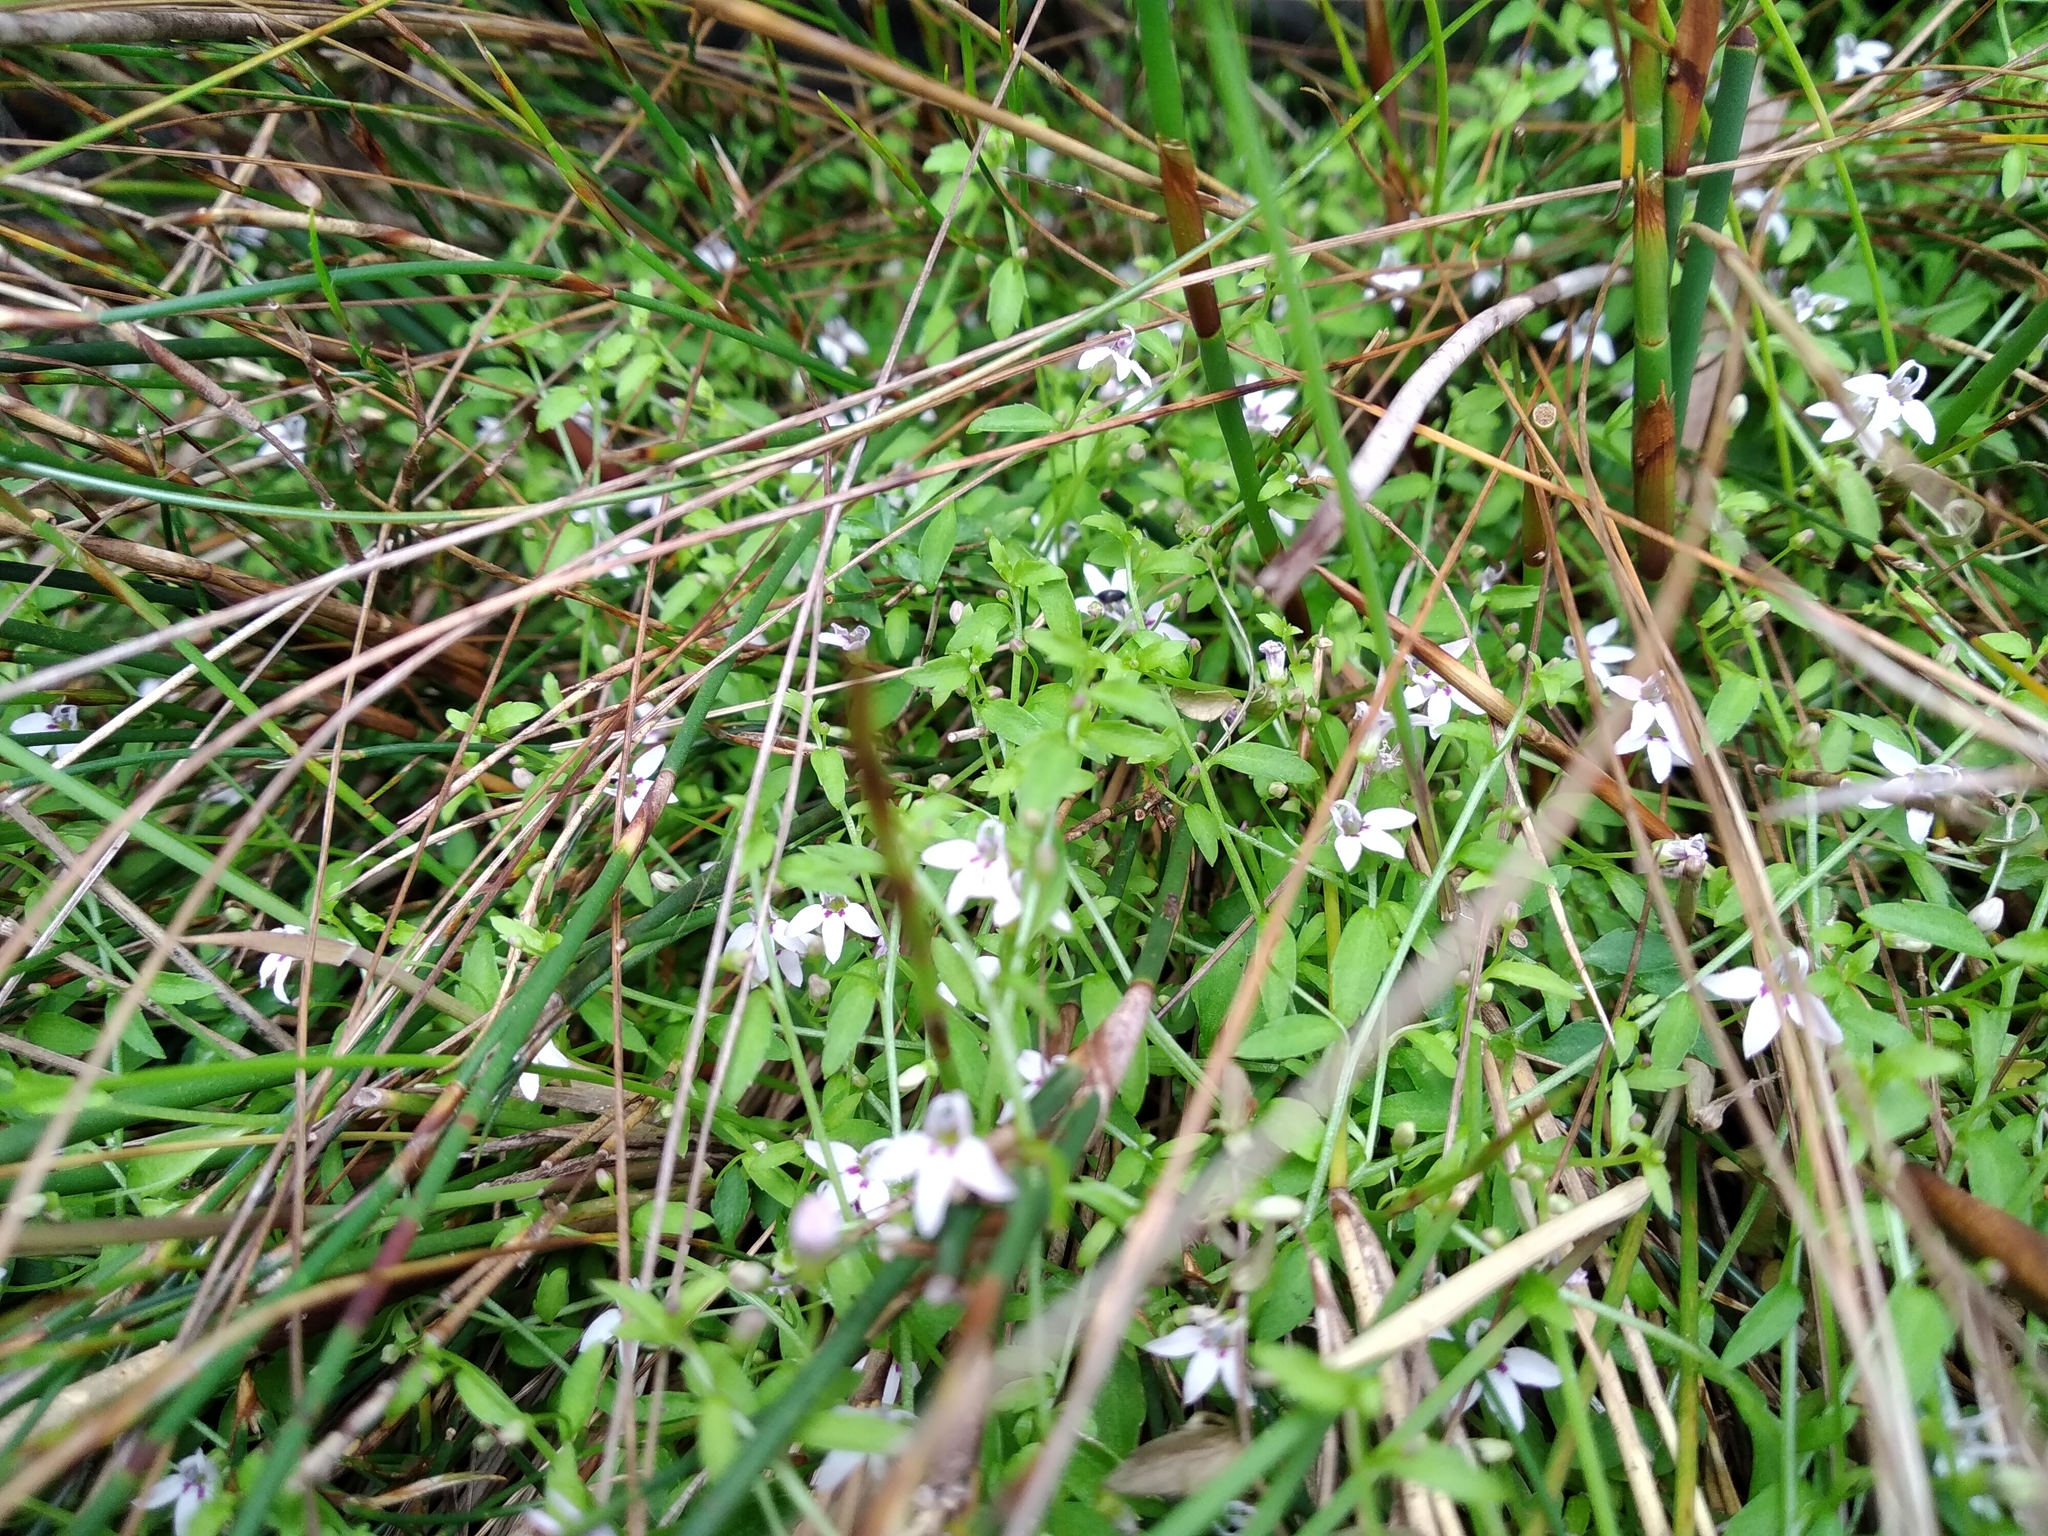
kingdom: Plantae
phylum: Tracheophyta
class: Magnoliopsida
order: Asterales
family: Campanulaceae
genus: Unigenes
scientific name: Unigenes humifusa
